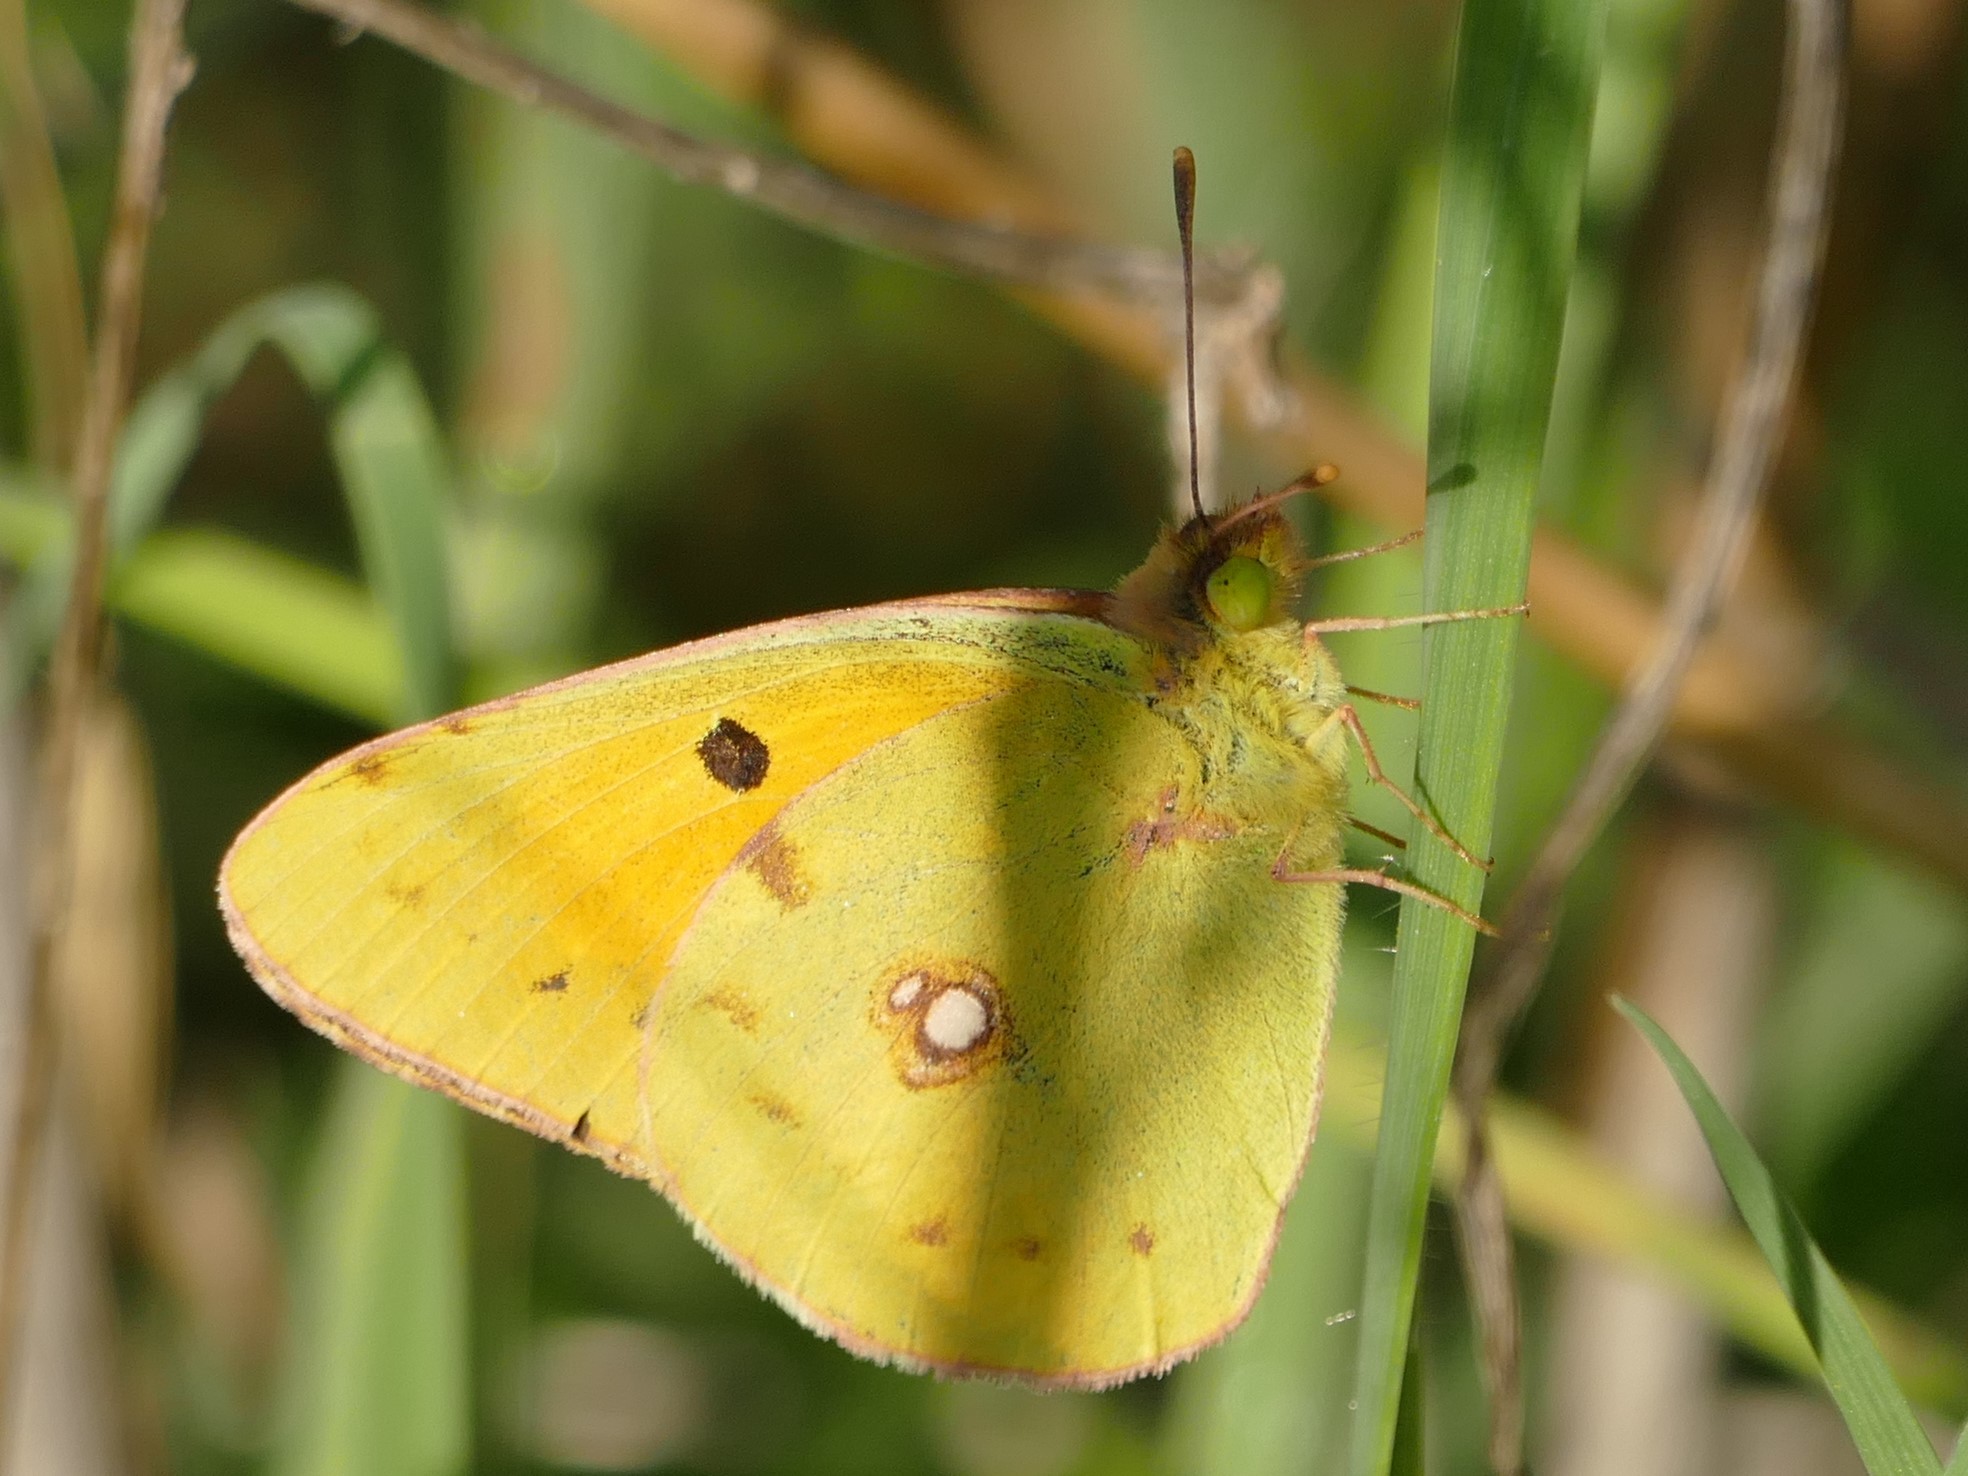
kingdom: Animalia
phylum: Arthropoda
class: Insecta
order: Lepidoptera
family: Pieridae
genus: Colias
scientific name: Colias croceus
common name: Clouded yellow
